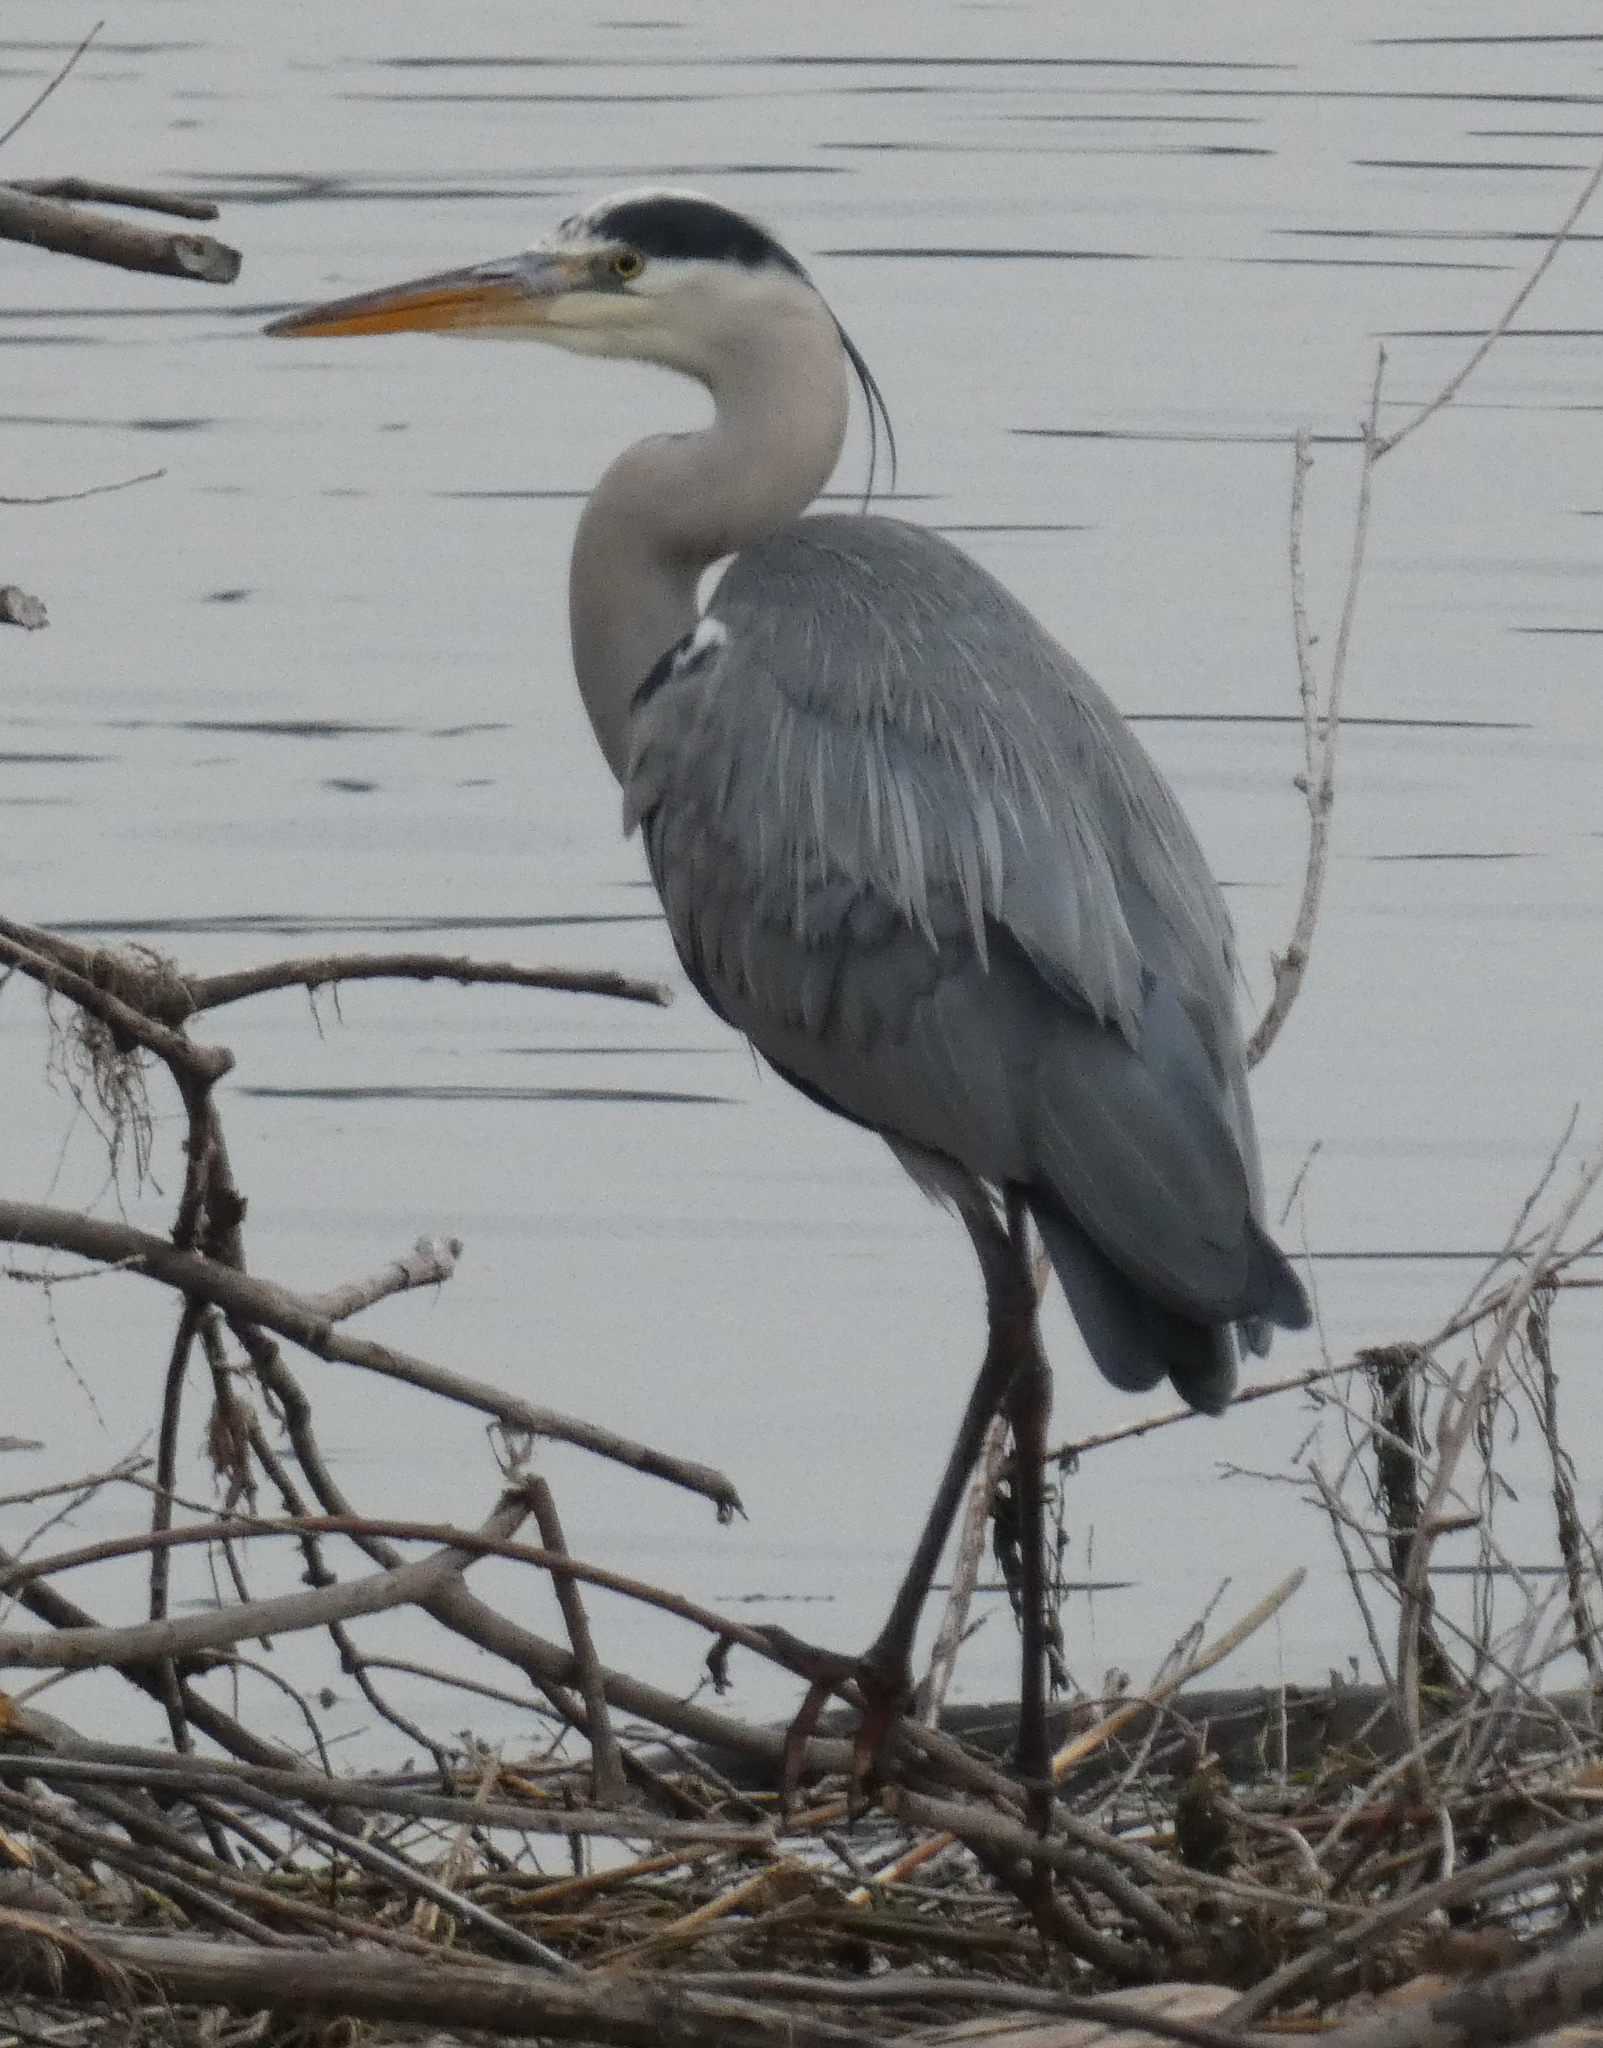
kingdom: Animalia
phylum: Chordata
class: Aves
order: Pelecaniformes
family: Ardeidae
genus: Ardea
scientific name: Ardea cinerea
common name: Grey heron
